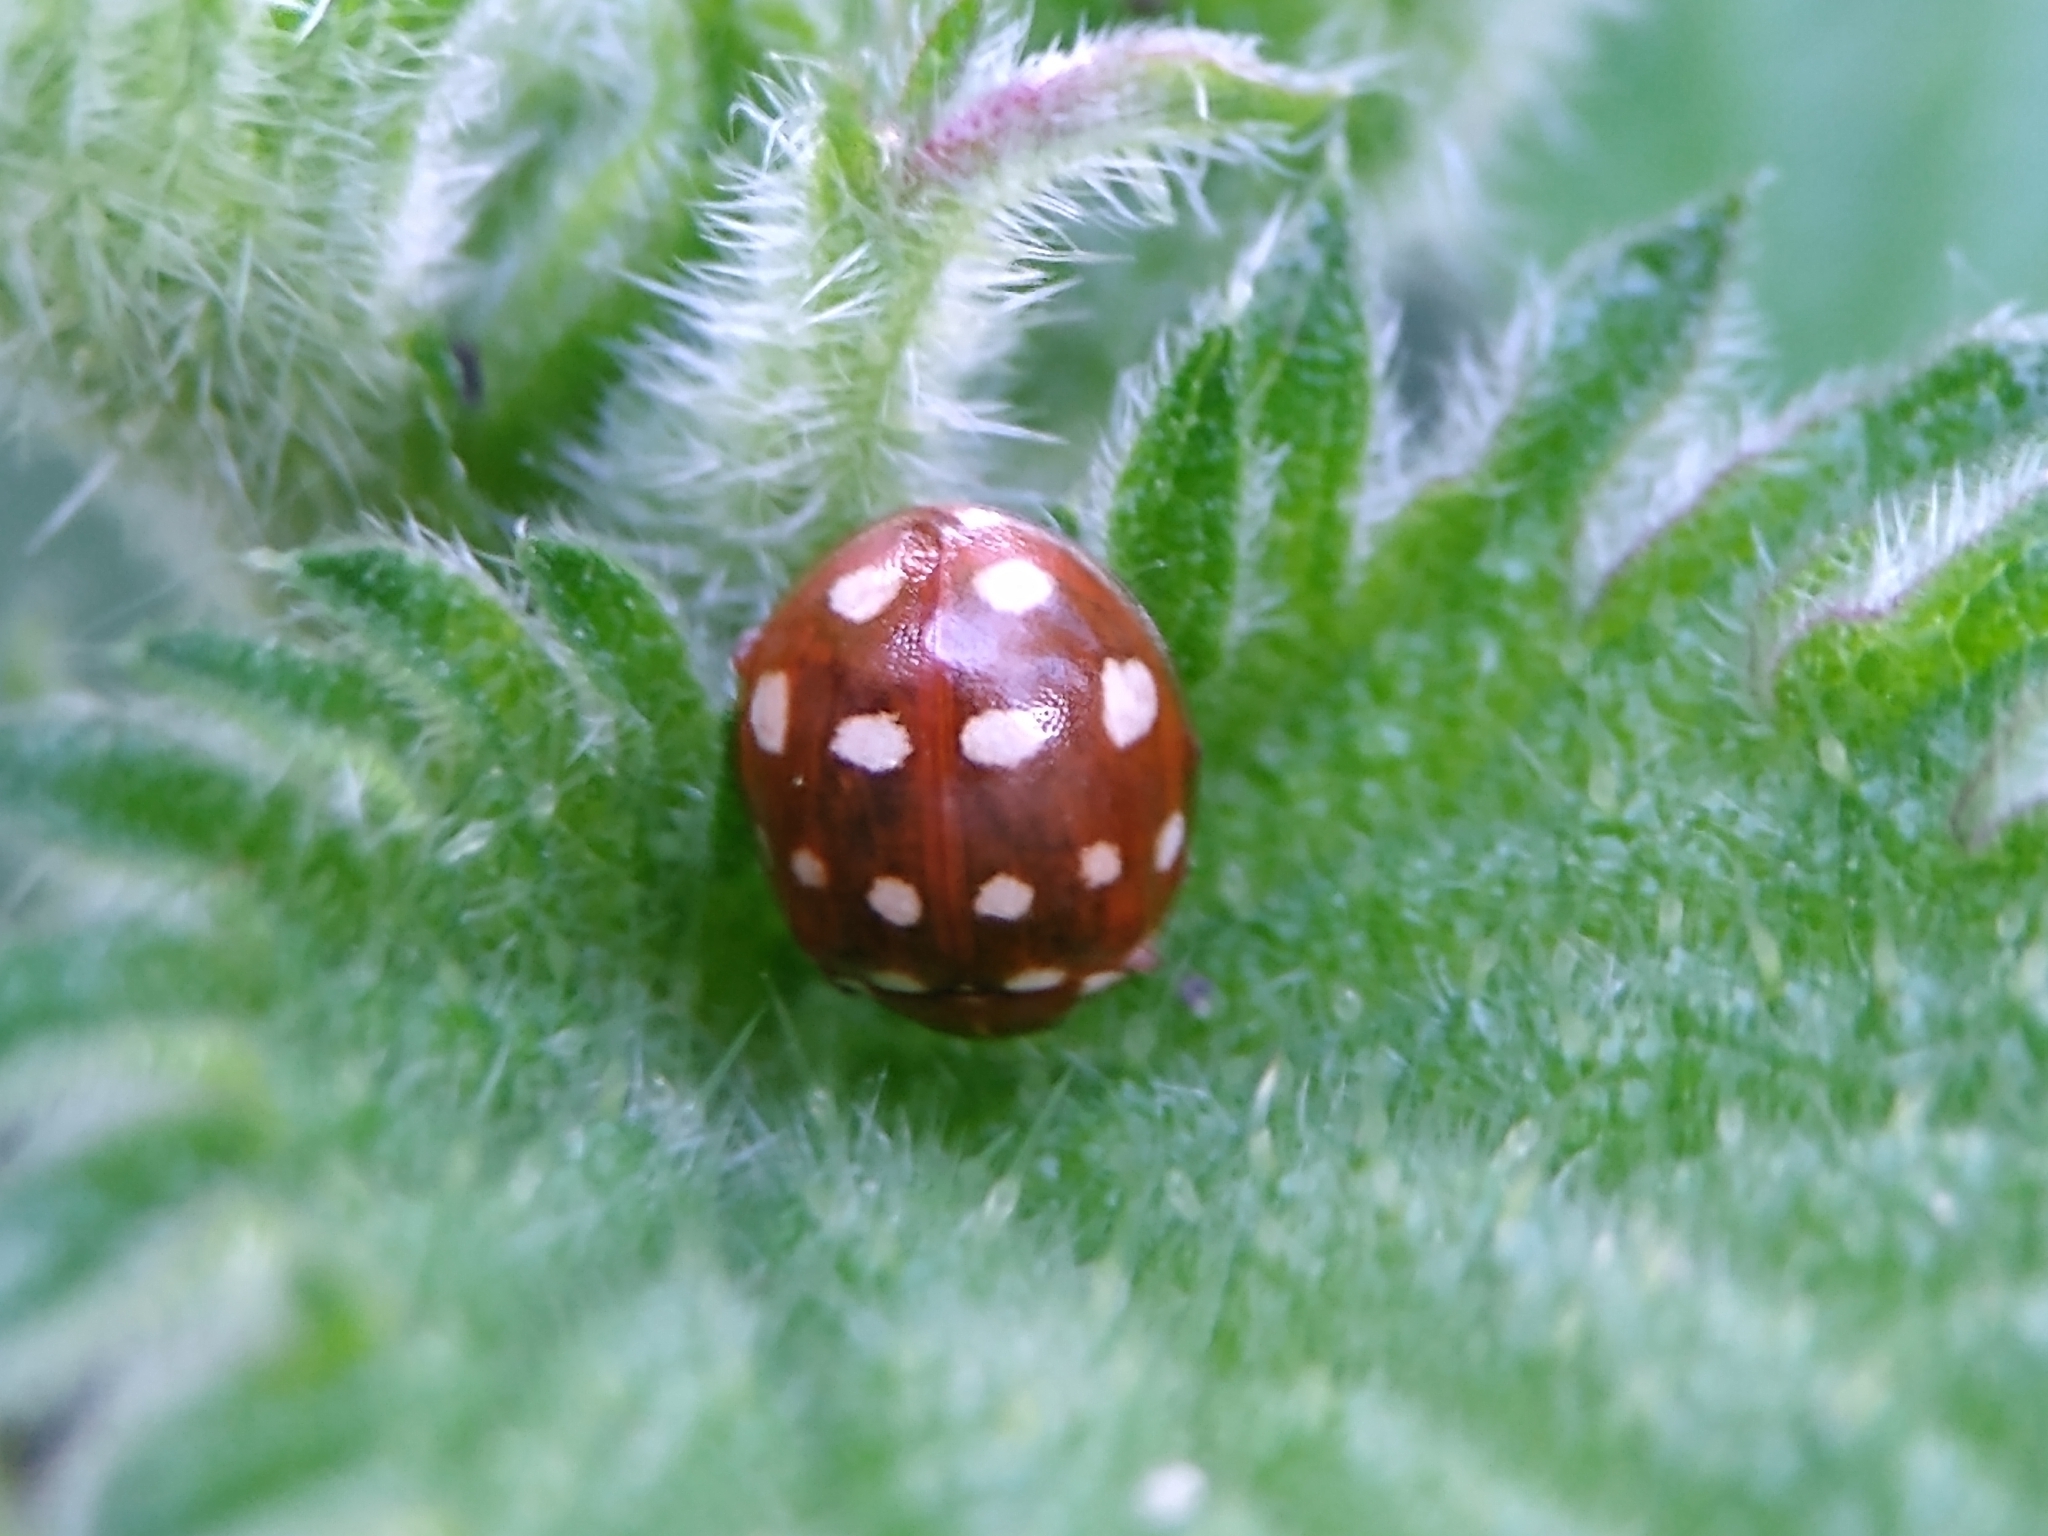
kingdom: Animalia
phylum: Arthropoda
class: Insecta
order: Coleoptera
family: Coccinellidae
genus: Calvia
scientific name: Calvia quatuordecimguttata
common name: Cream-spot ladybird
